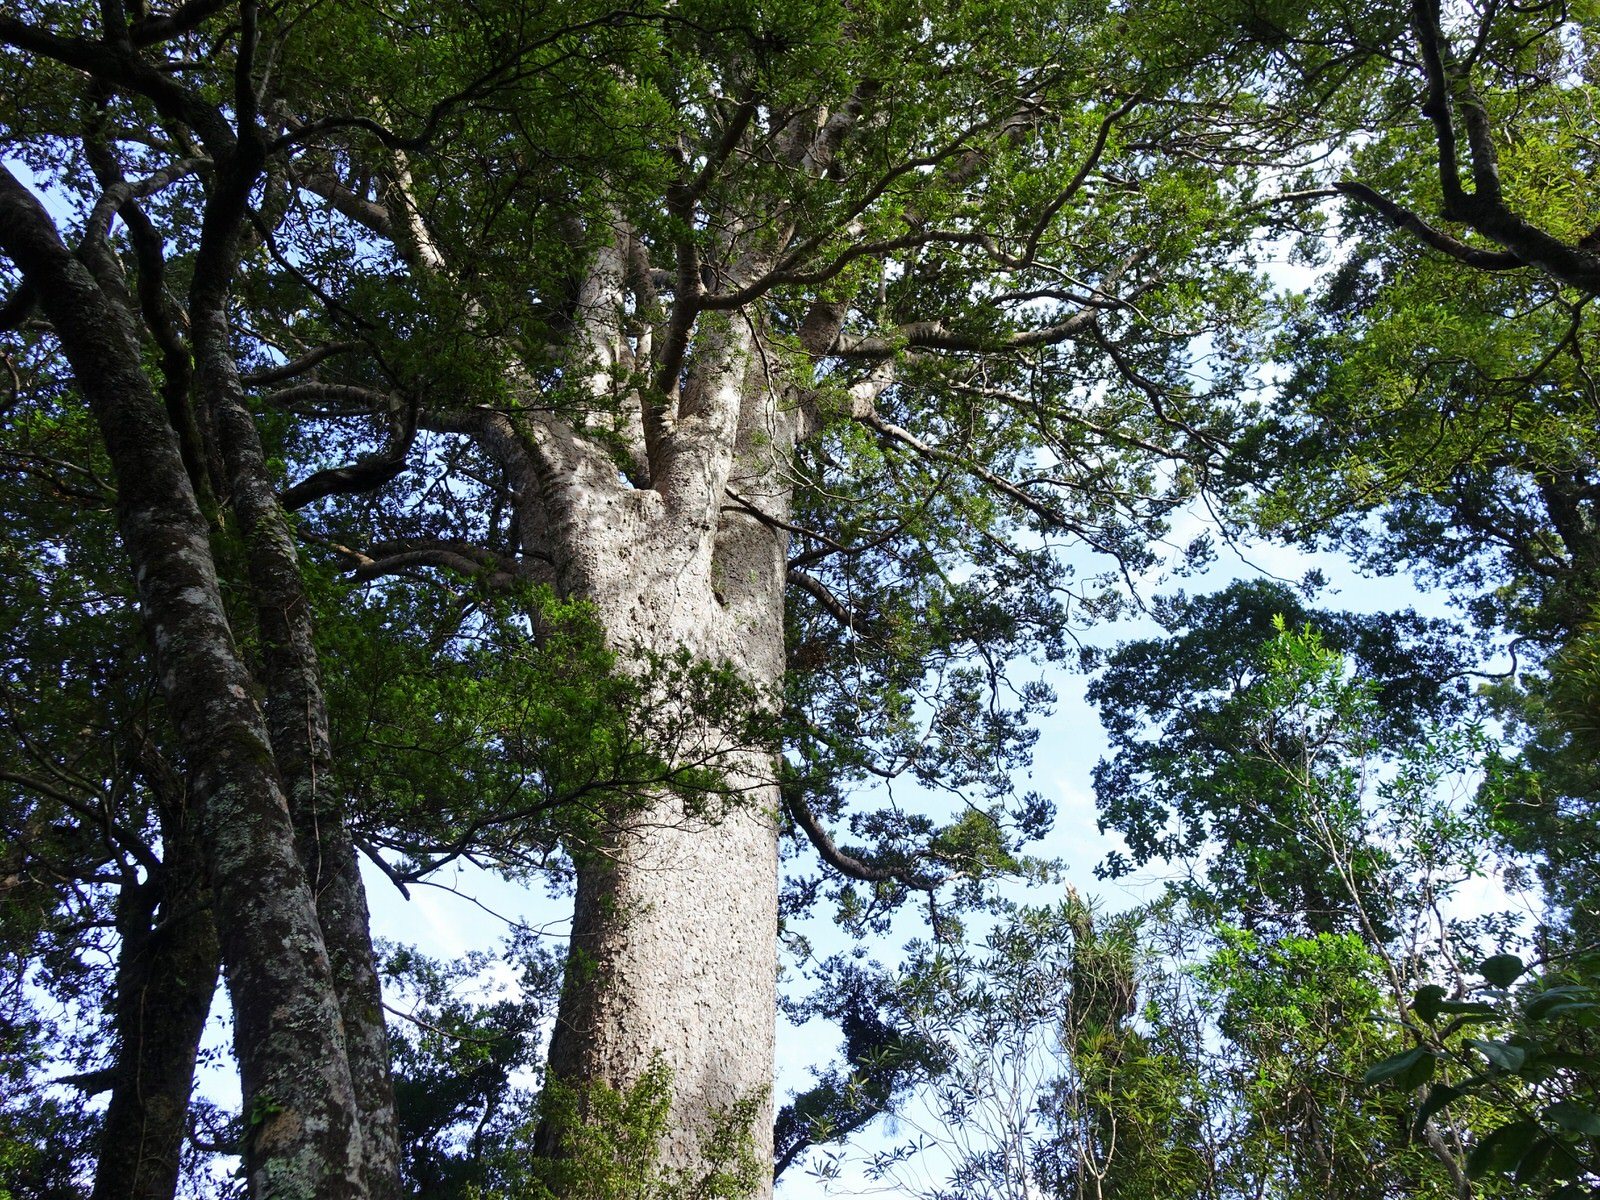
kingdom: Plantae
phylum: Tracheophyta
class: Pinopsida
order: Pinales
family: Araucariaceae
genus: Agathis
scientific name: Agathis australis
